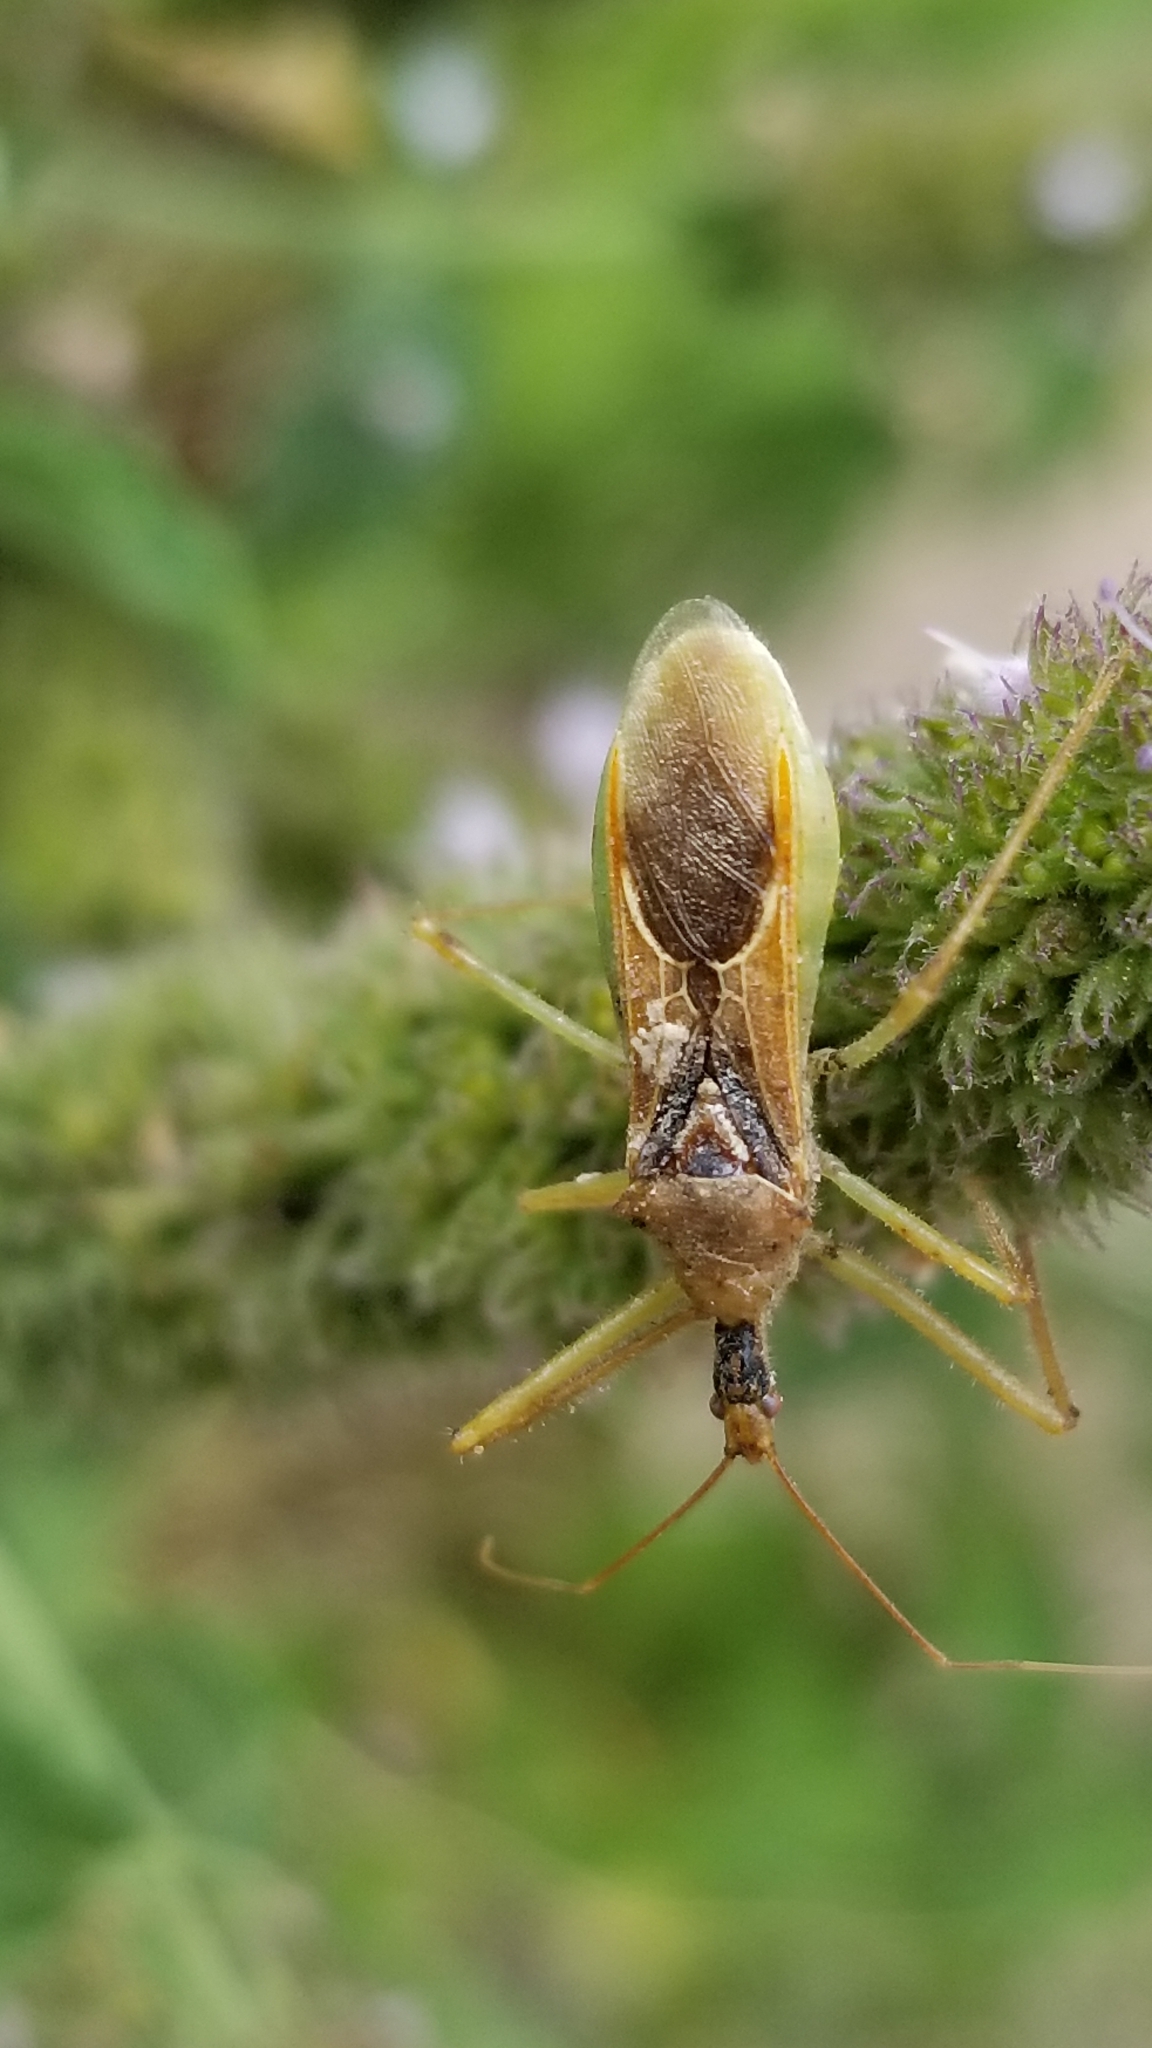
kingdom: Animalia
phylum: Arthropoda
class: Insecta
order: Hemiptera
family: Reduviidae
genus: Zelus
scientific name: Zelus renardii
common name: Assassin bug
